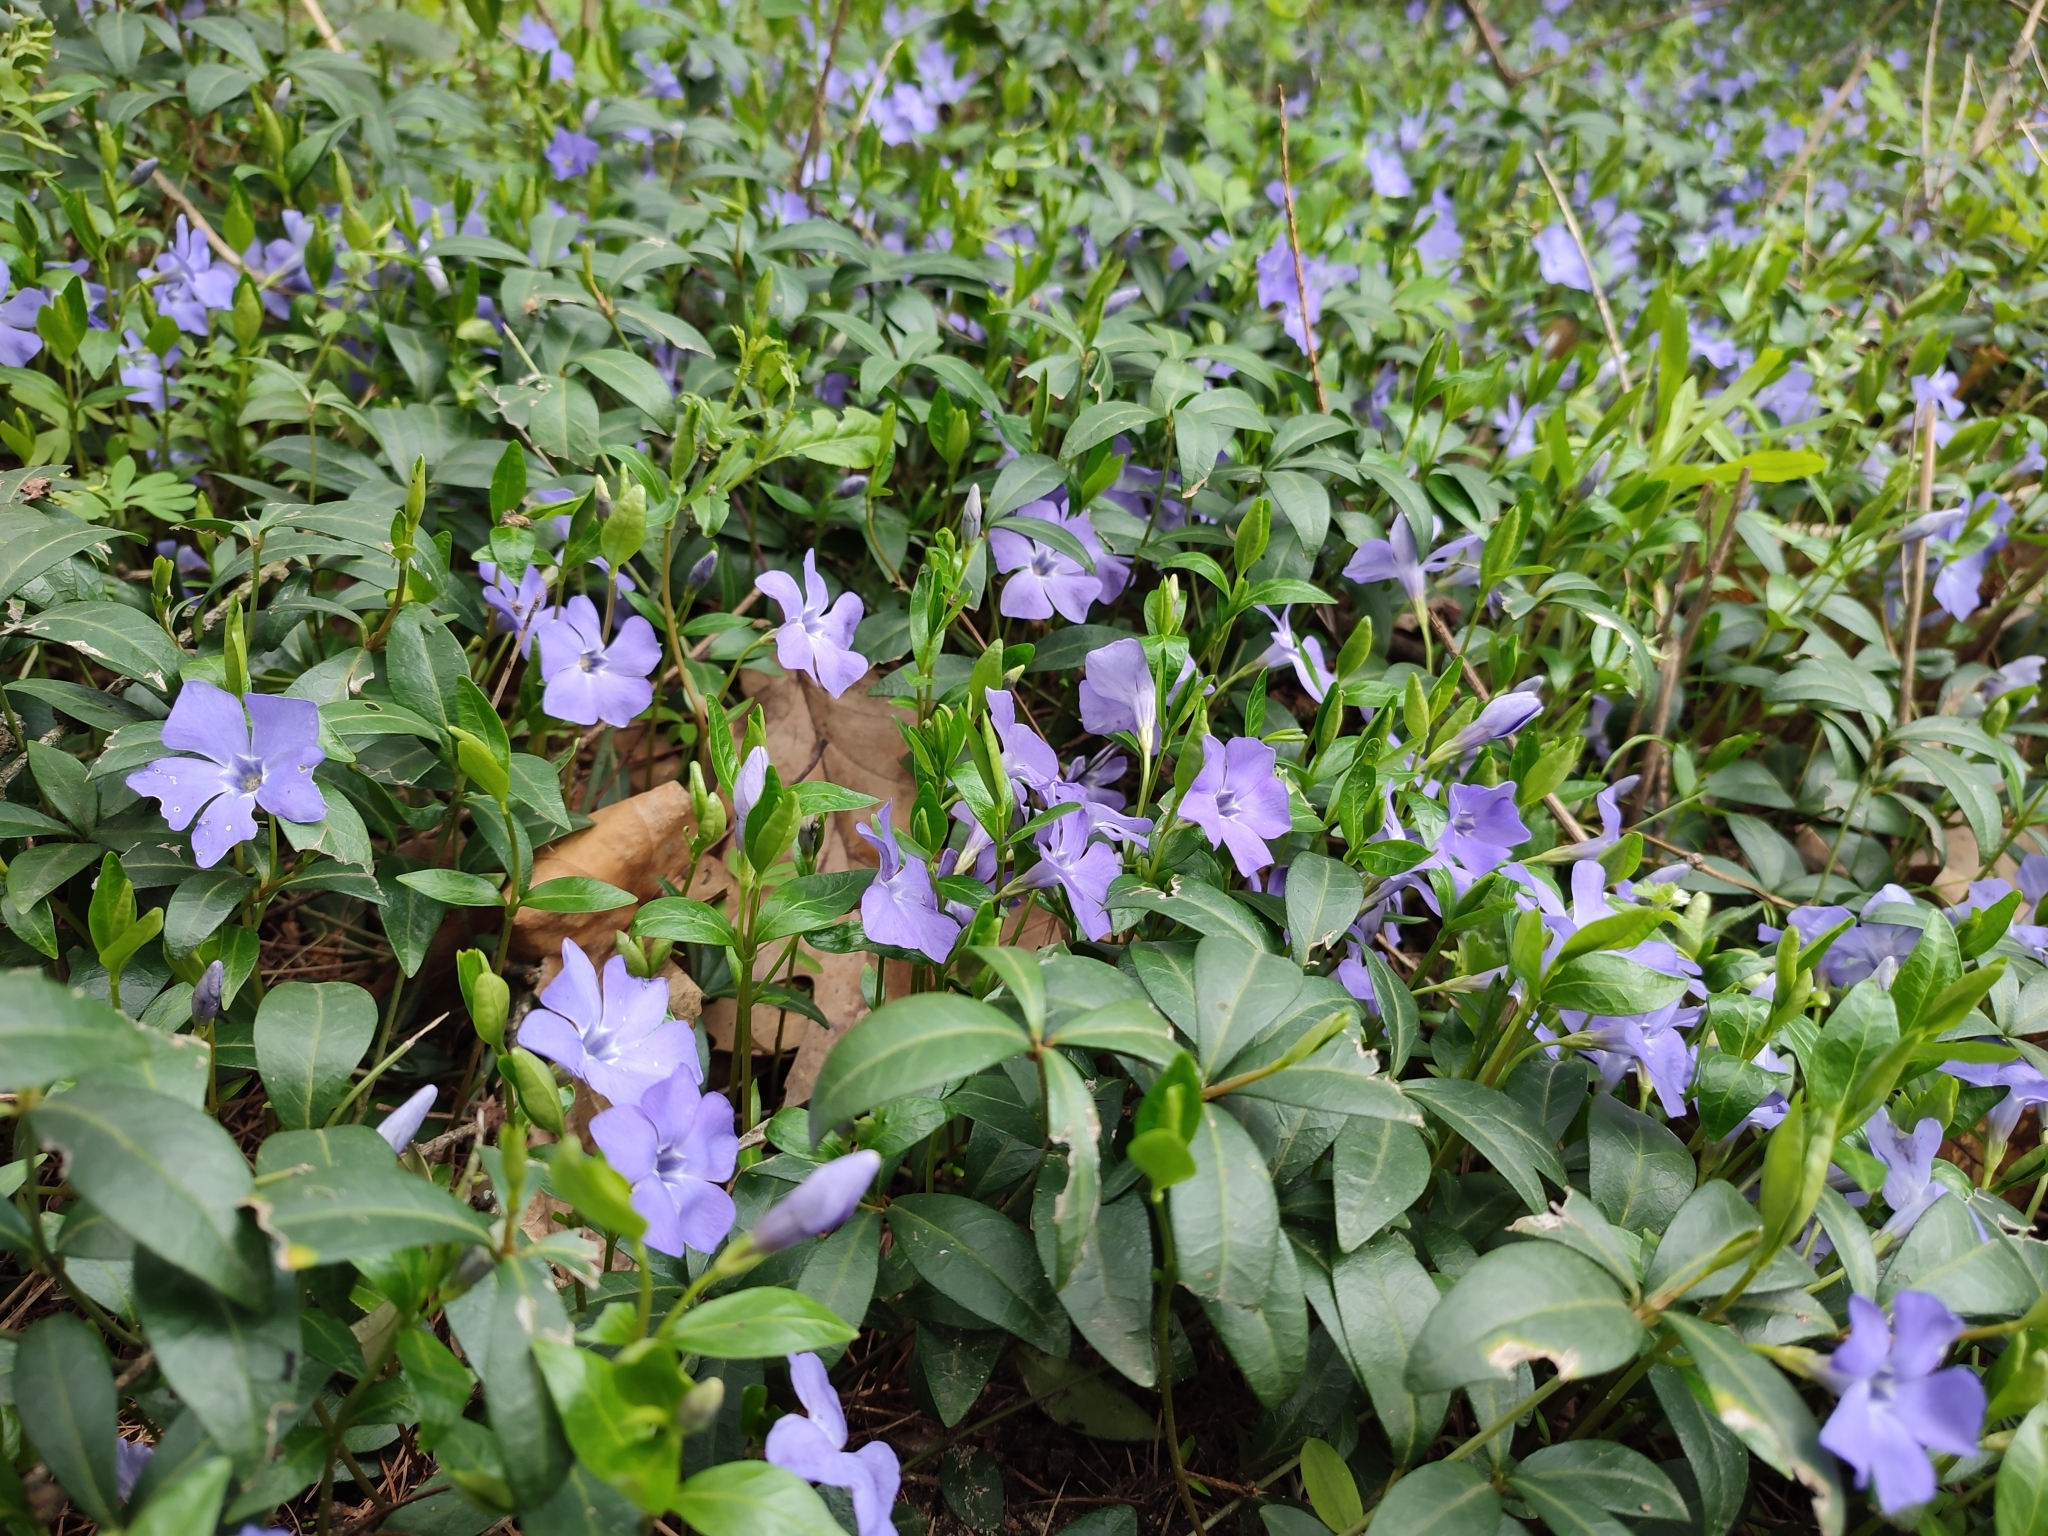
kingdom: Plantae
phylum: Tracheophyta
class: Magnoliopsida
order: Gentianales
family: Apocynaceae
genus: Vinca
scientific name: Vinca minor
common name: Lesser periwinkle
